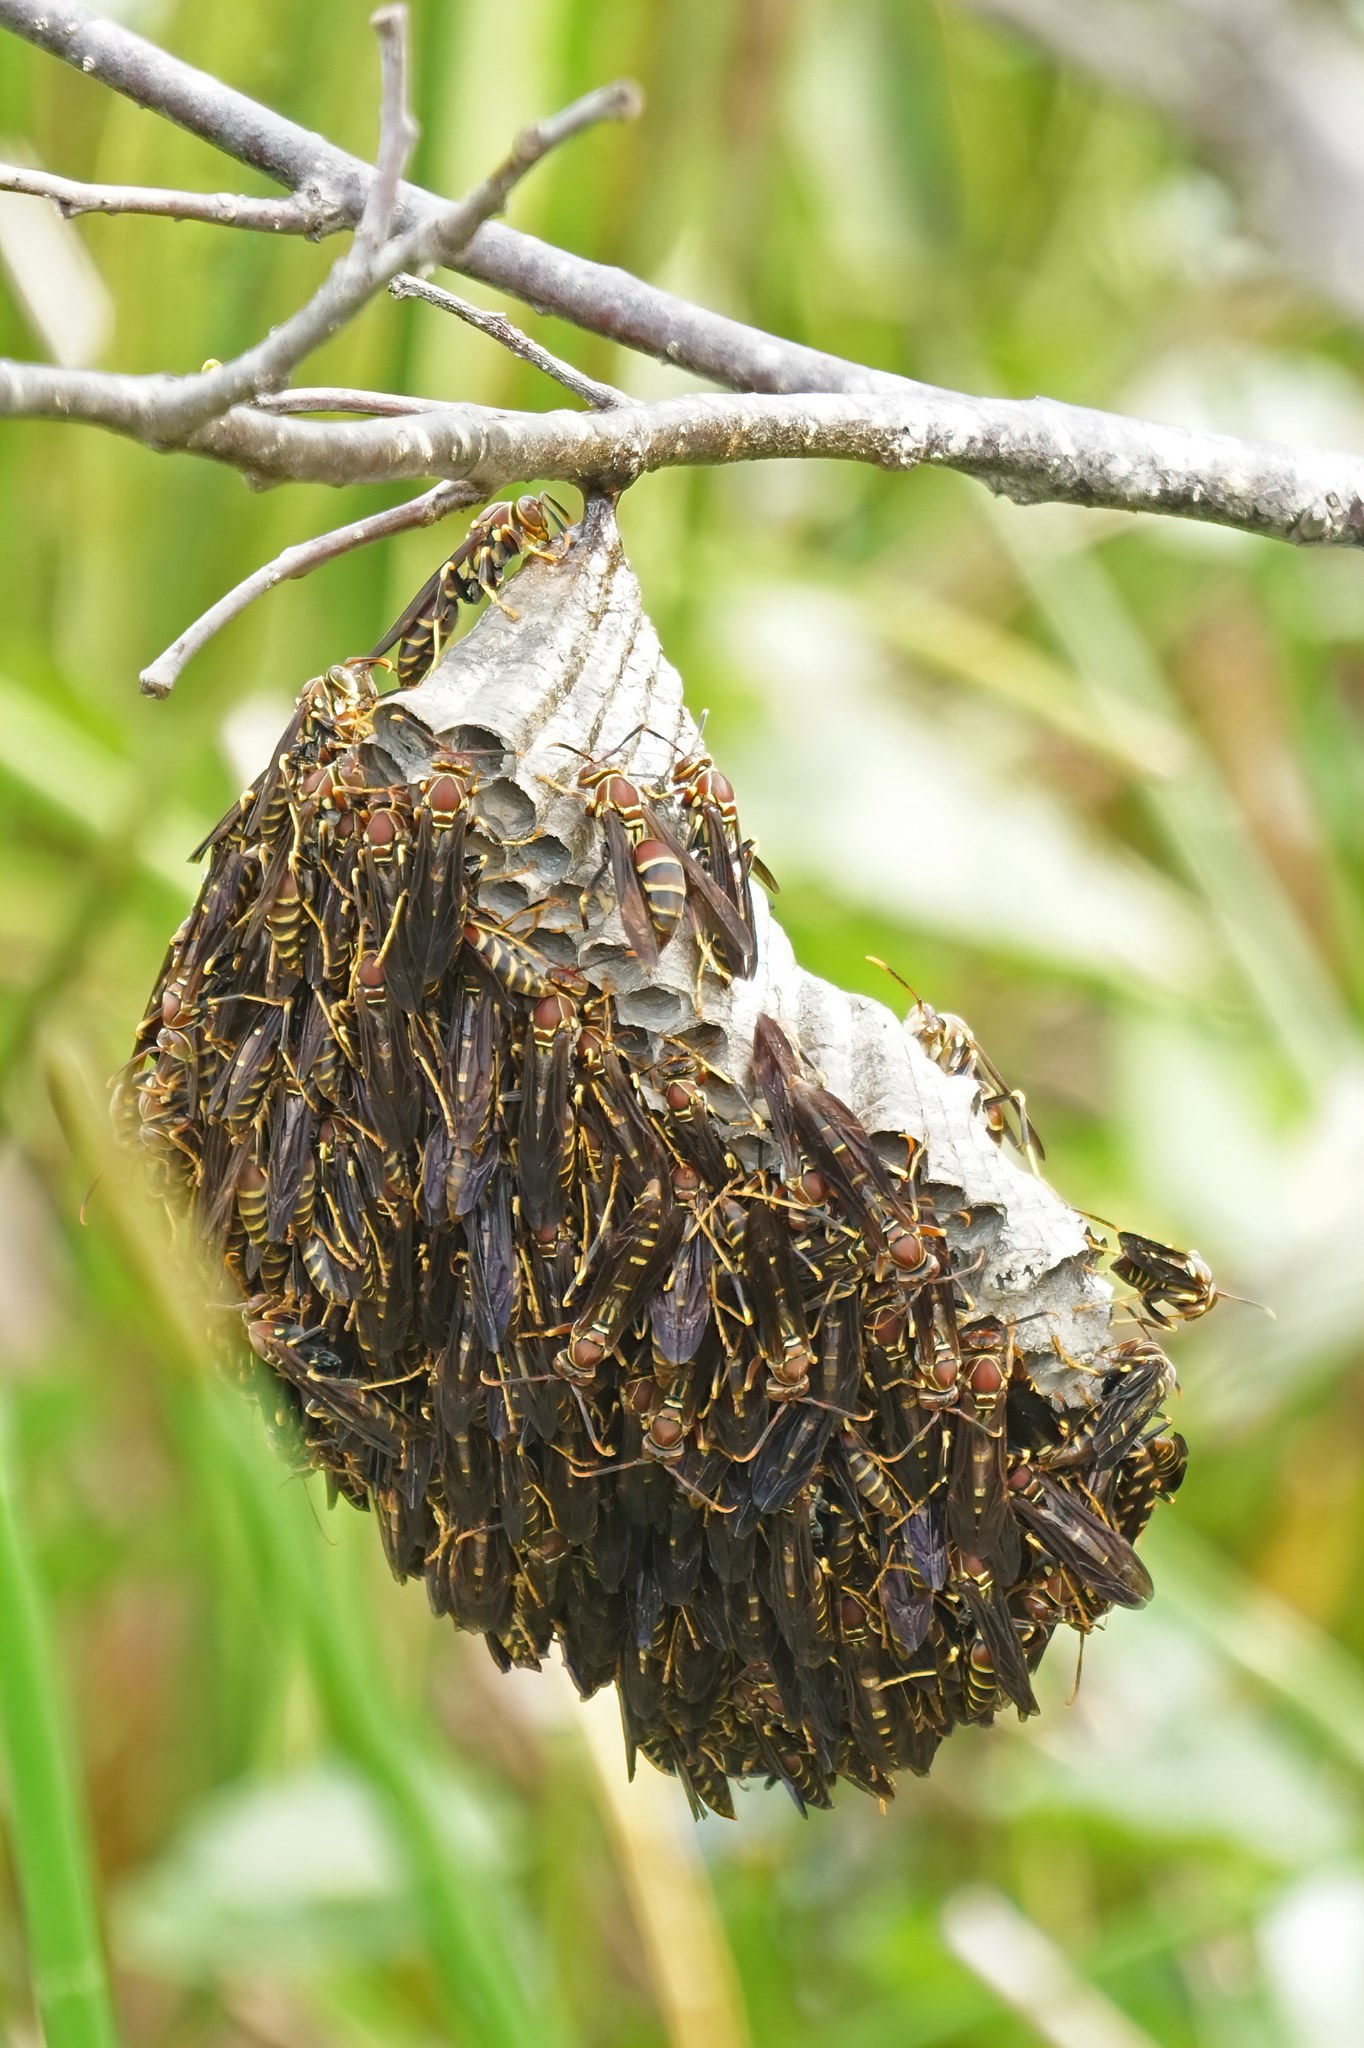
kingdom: Animalia
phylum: Arthropoda
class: Insecta
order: Hymenoptera
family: Eumenidae
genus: Polistes
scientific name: Polistes exclamans
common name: Paper wasp
